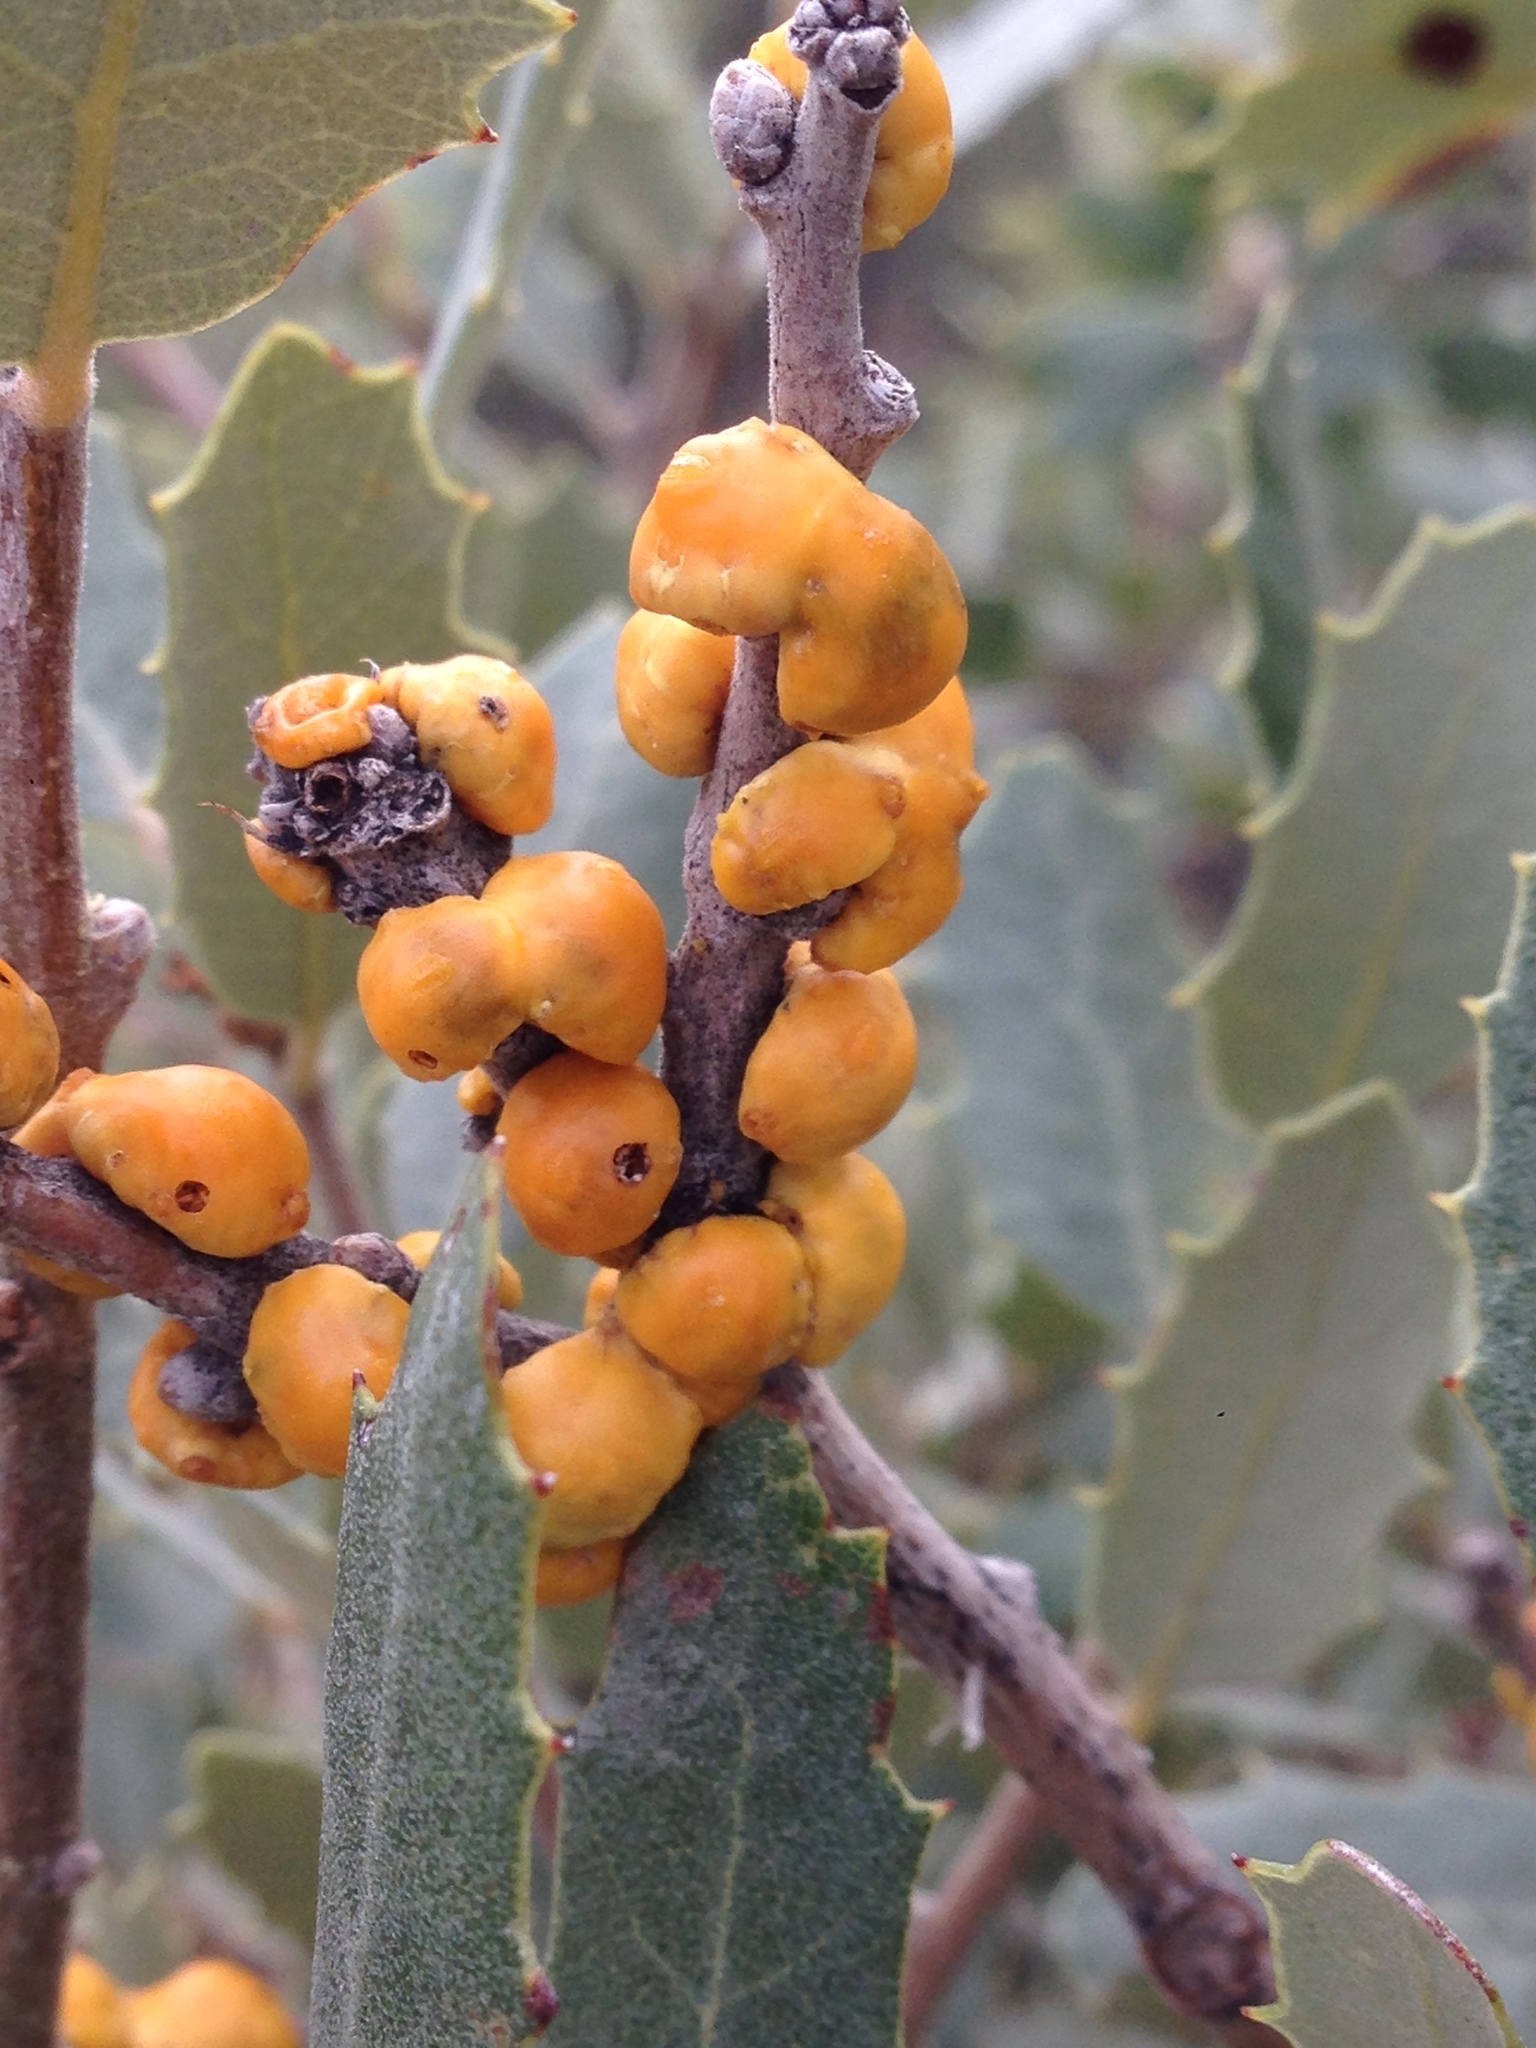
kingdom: Animalia
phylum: Arthropoda
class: Insecta
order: Hemiptera
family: Cerococcidae
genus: Cerococcus
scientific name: Cerococcus quercus
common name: Oak cerococcus
